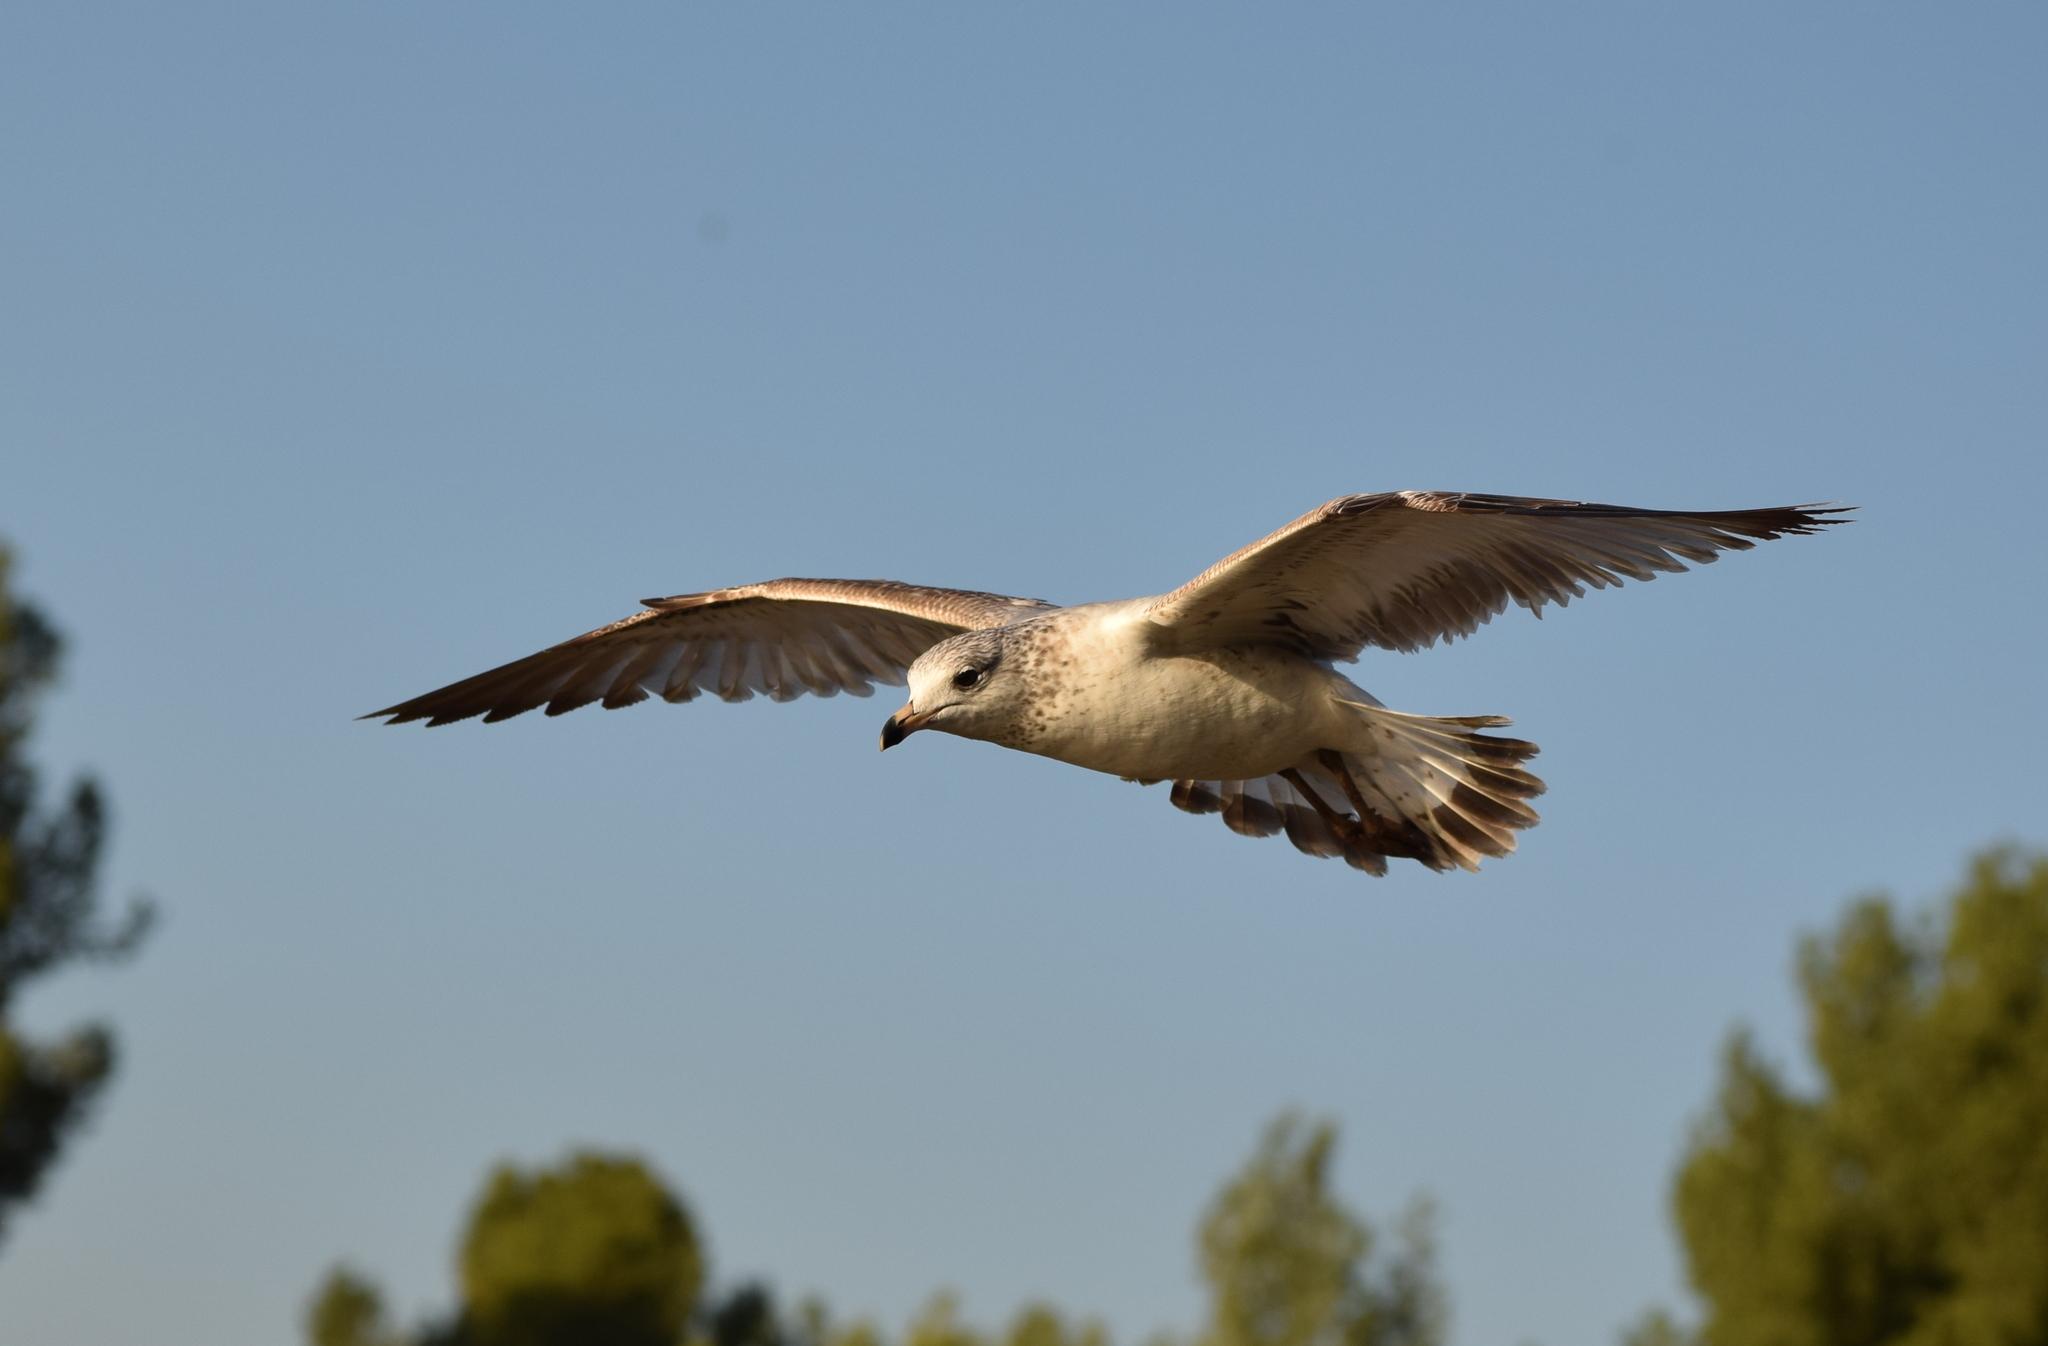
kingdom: Animalia
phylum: Chordata
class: Aves
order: Charadriiformes
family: Laridae
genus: Larus
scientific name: Larus delawarensis
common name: Ring-billed gull
